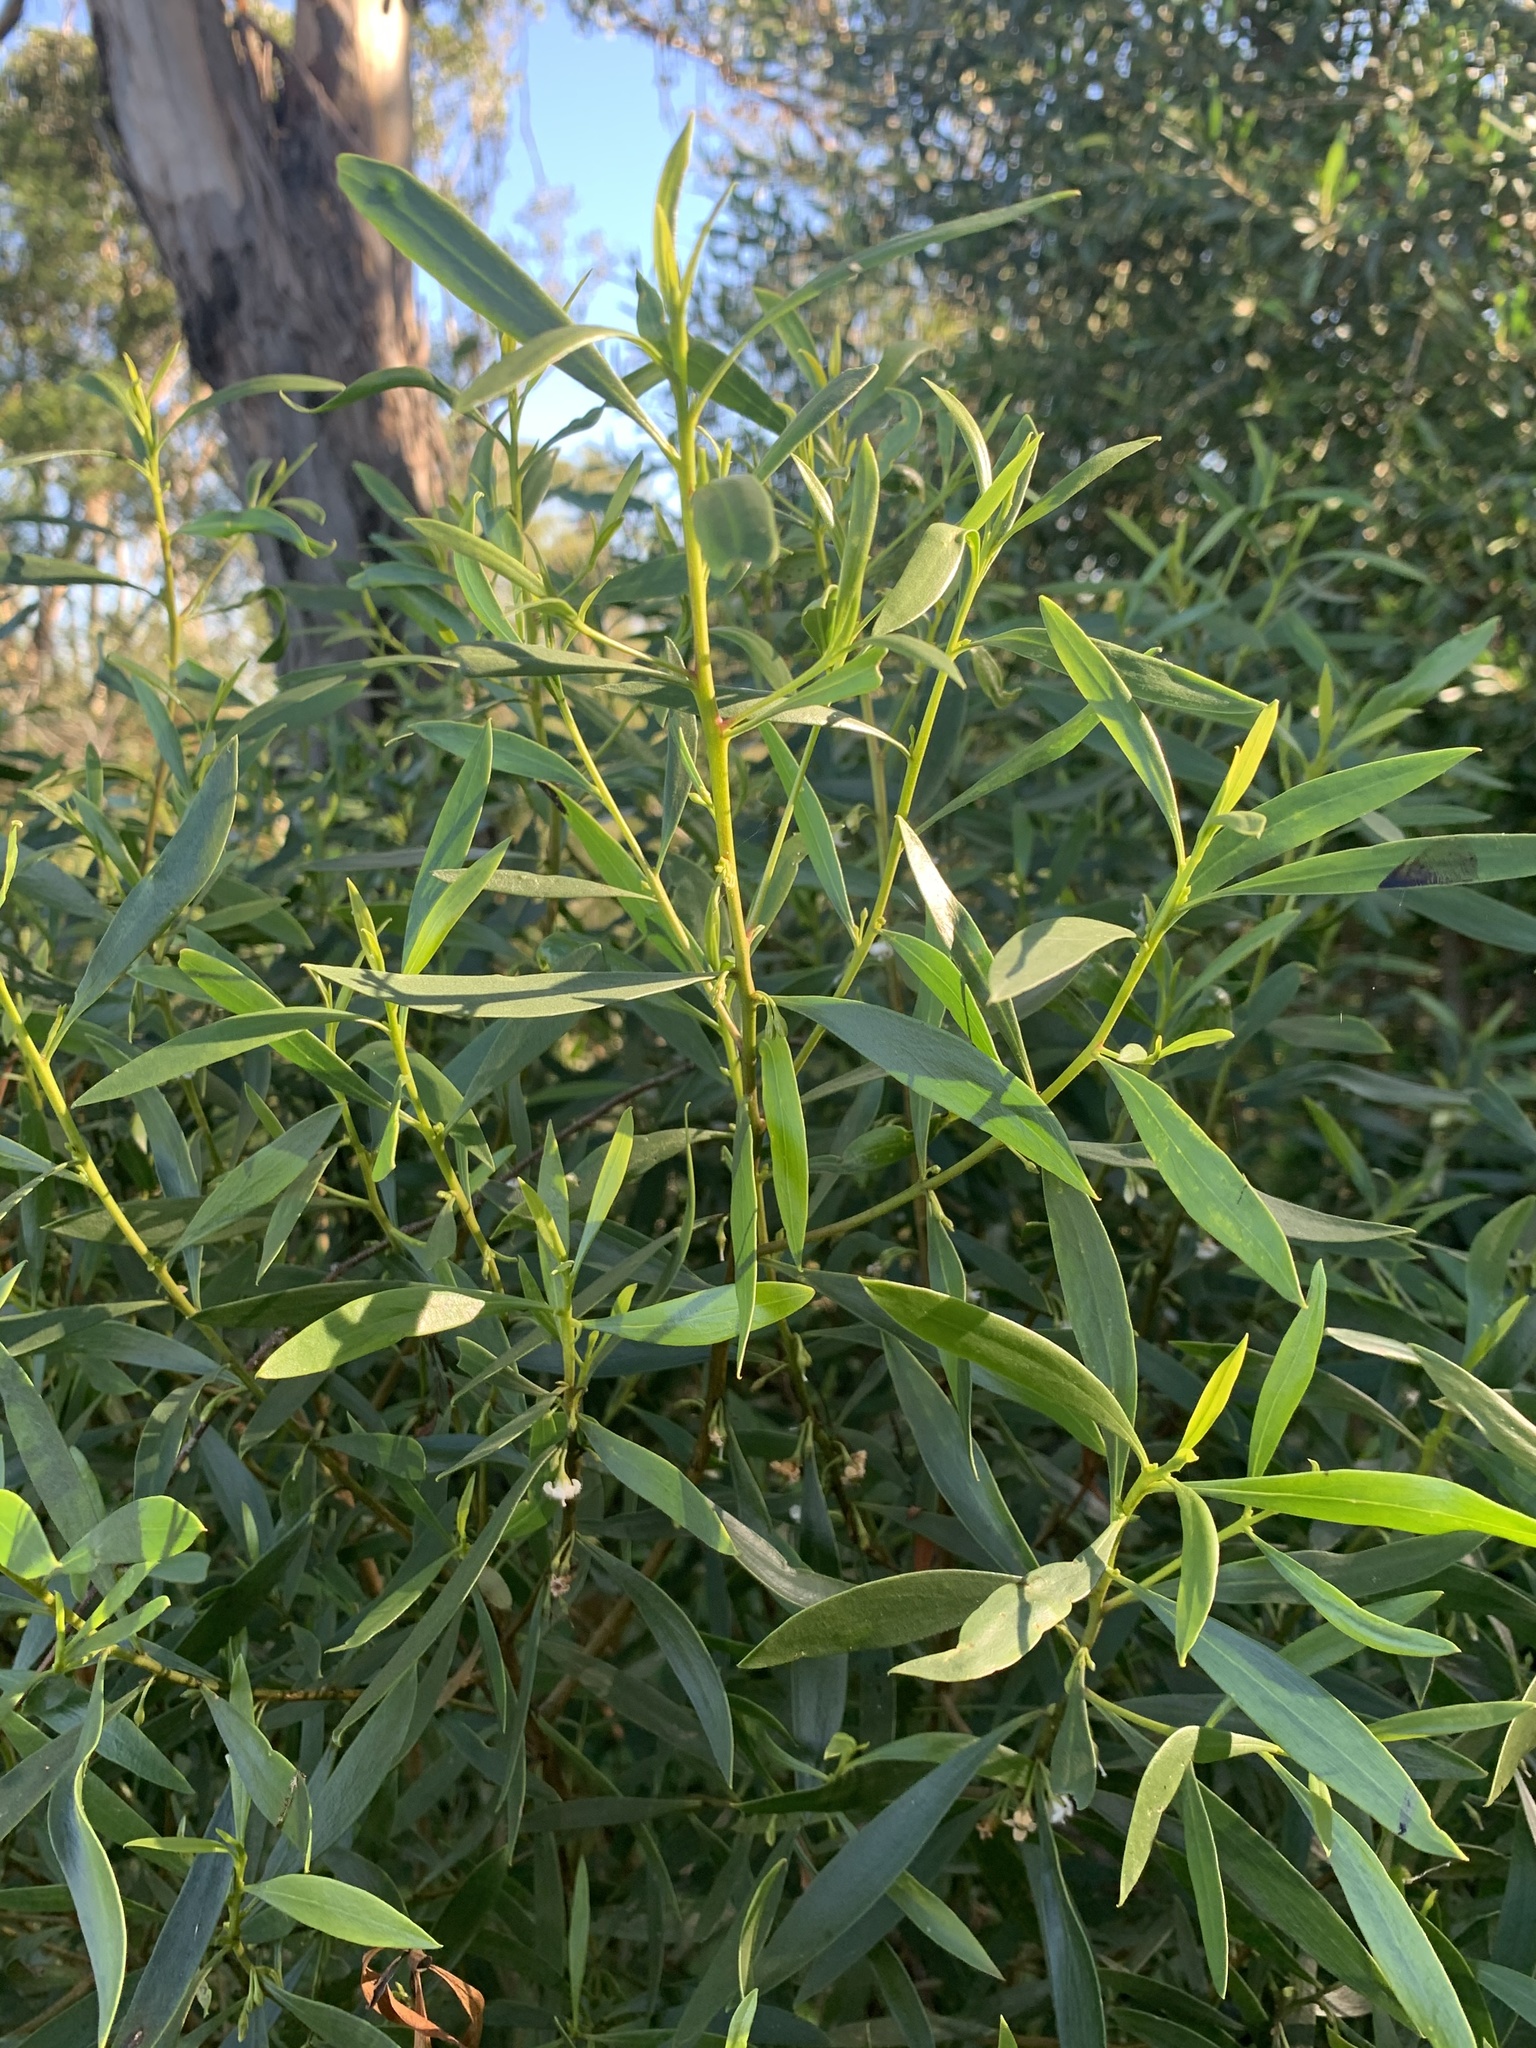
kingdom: Plantae
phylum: Tracheophyta
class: Magnoliopsida
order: Lamiales
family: Scrophulariaceae
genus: Myoporum
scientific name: Myoporum montanum
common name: Waterbush
